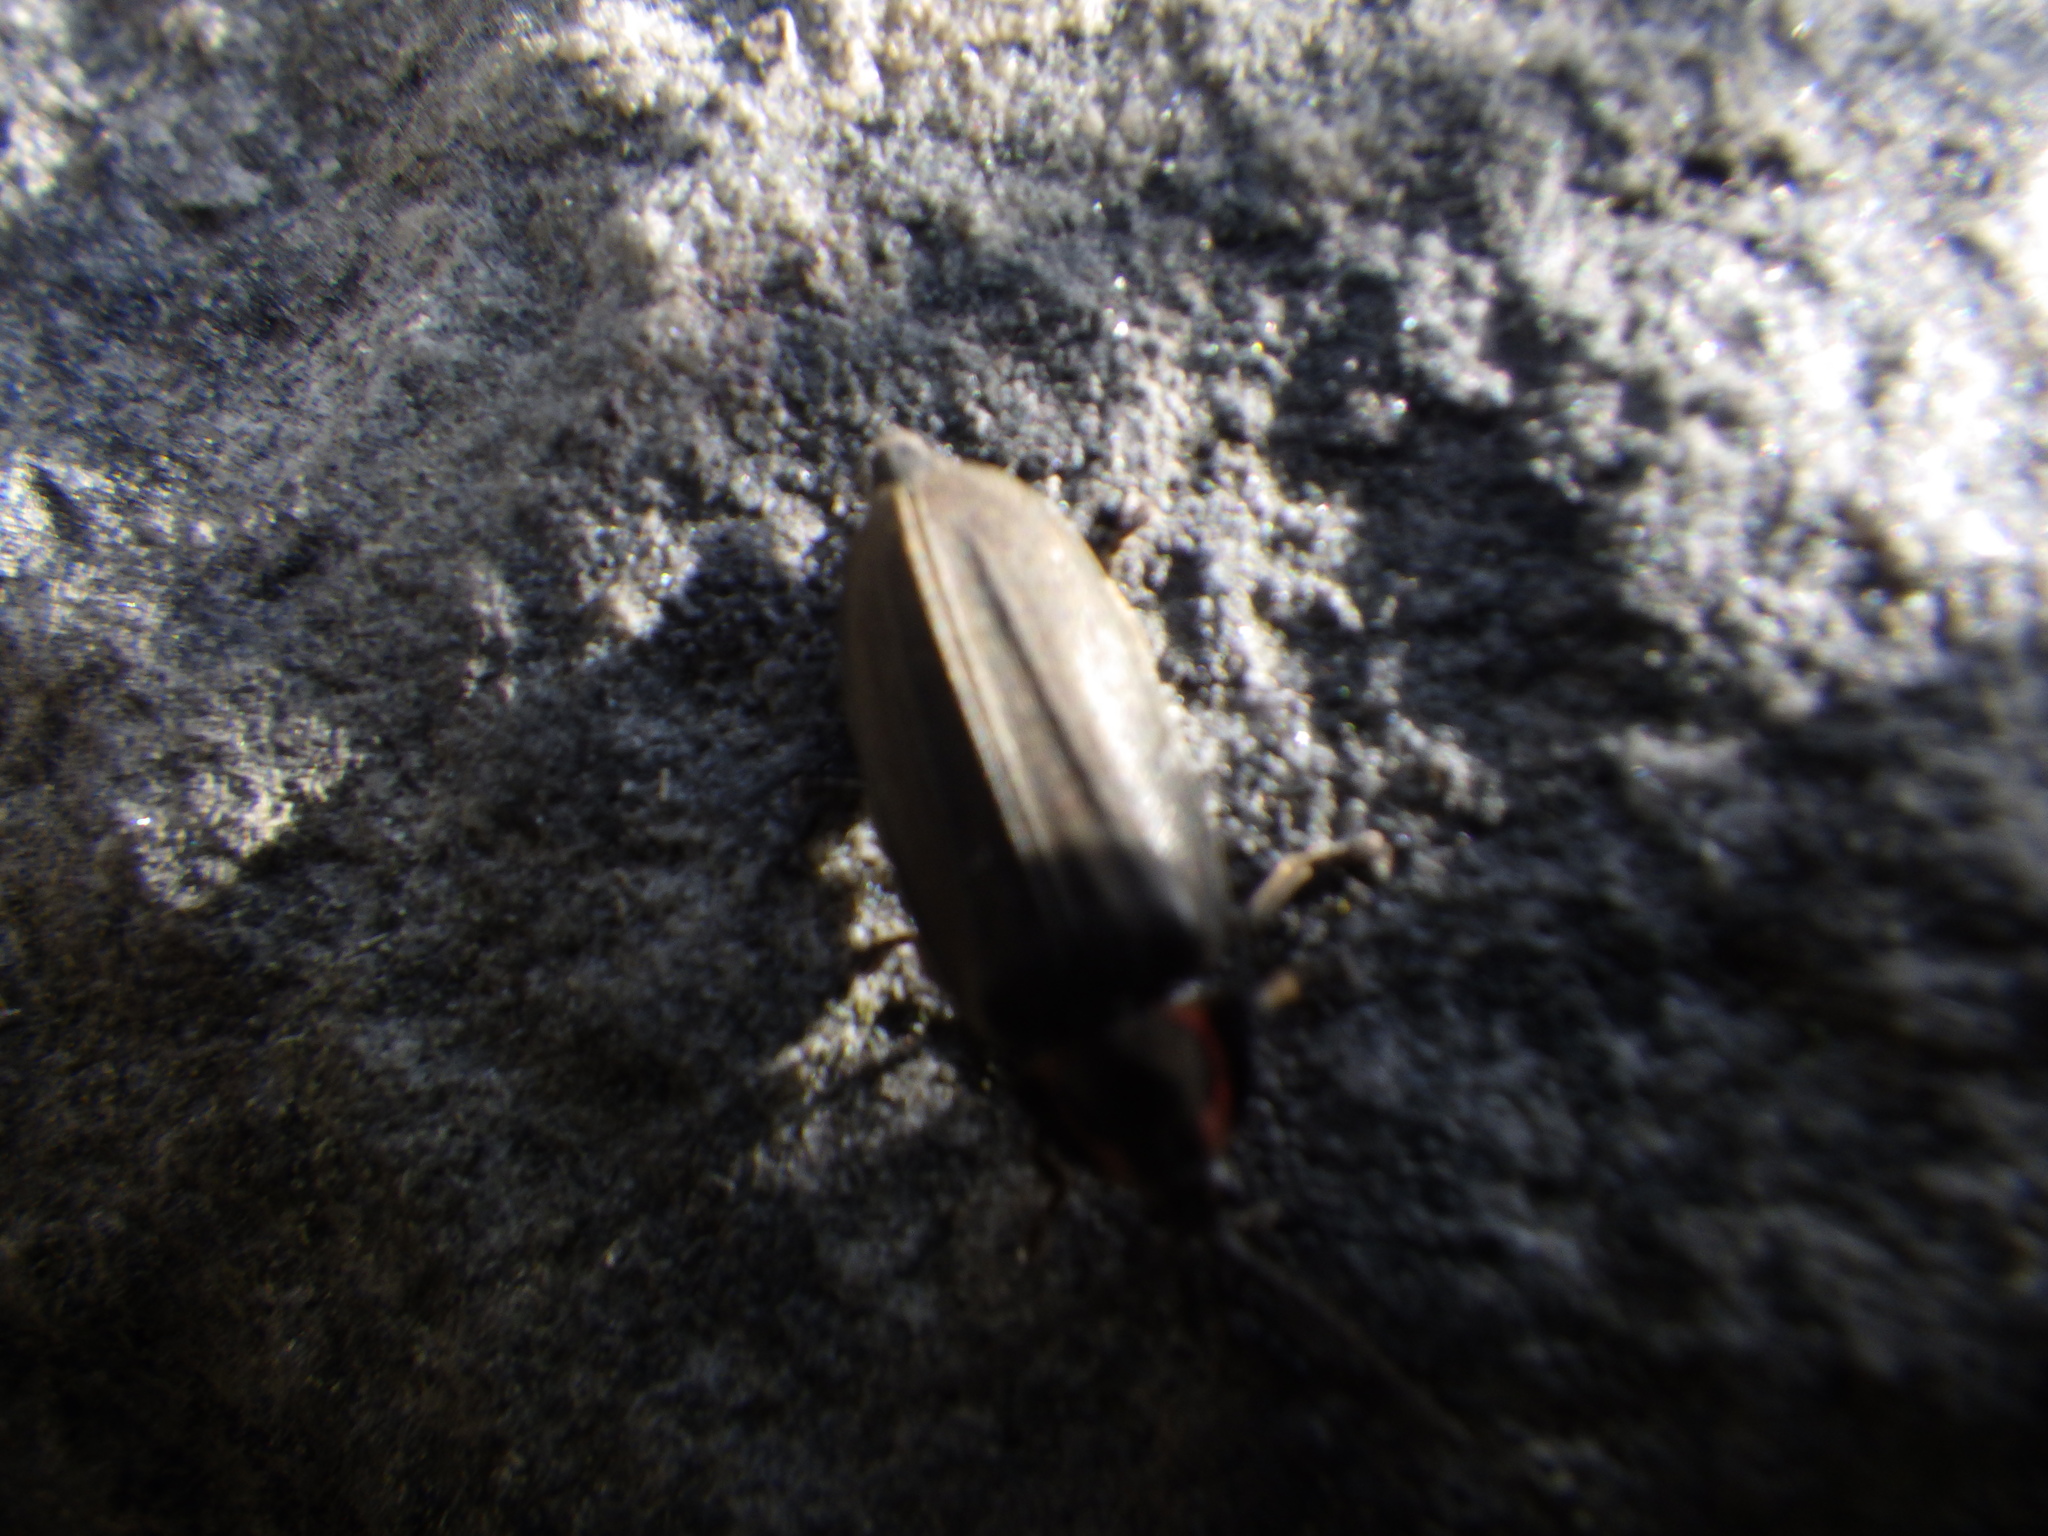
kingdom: Animalia
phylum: Arthropoda
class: Insecta
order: Coleoptera
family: Lampyridae
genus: Photinus
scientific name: Photinus corrusca
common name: Winter firefly
